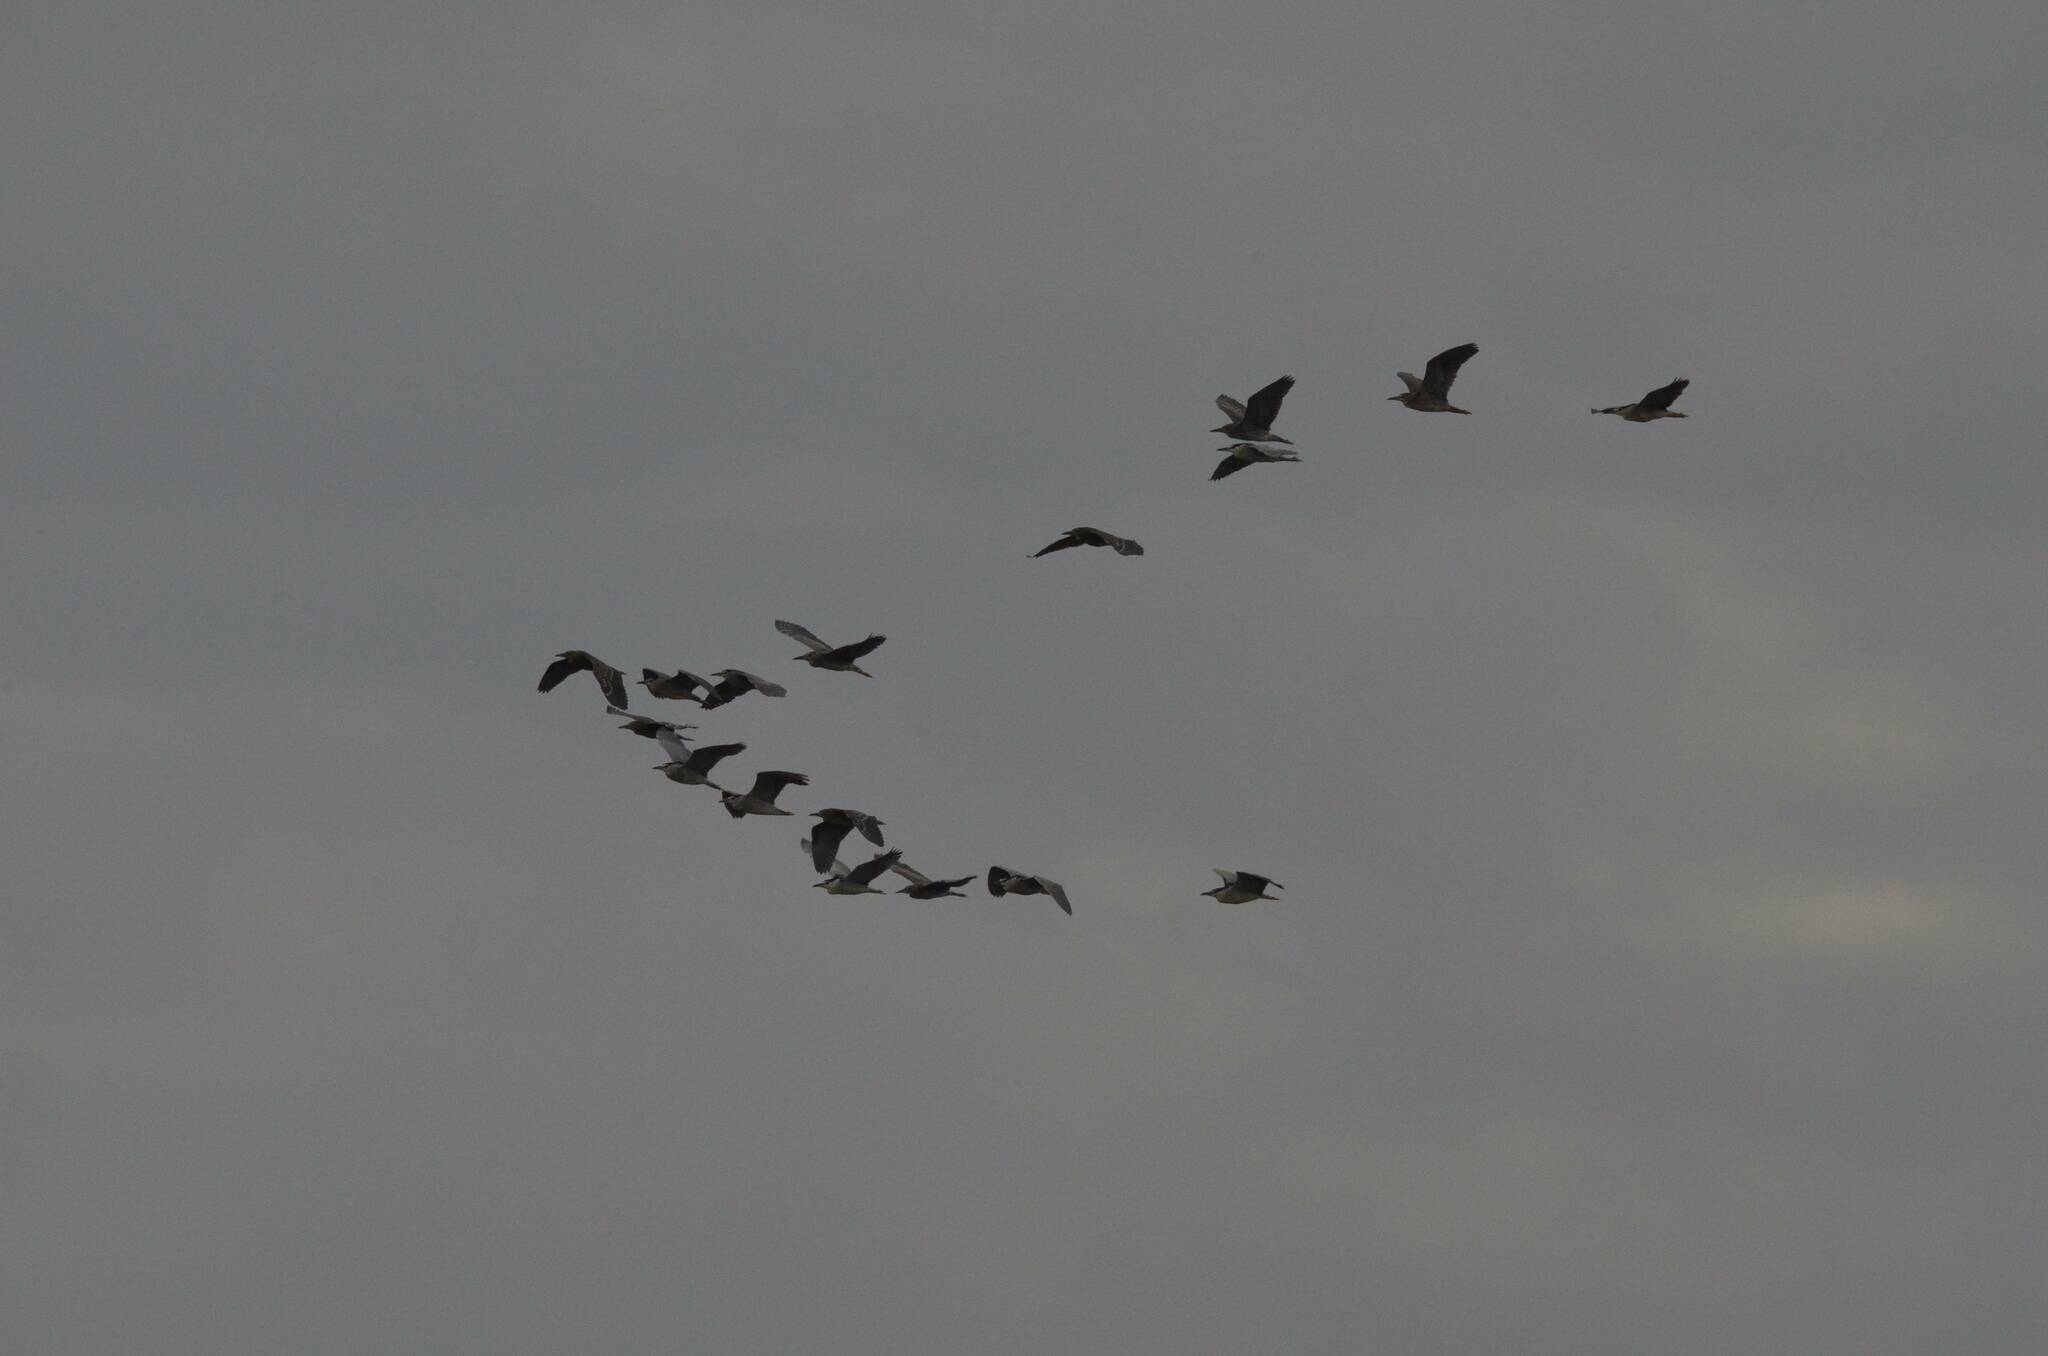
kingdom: Animalia
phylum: Chordata
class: Aves
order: Pelecaniformes
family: Ardeidae
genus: Nycticorax
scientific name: Nycticorax nycticorax
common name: Black-crowned night heron
